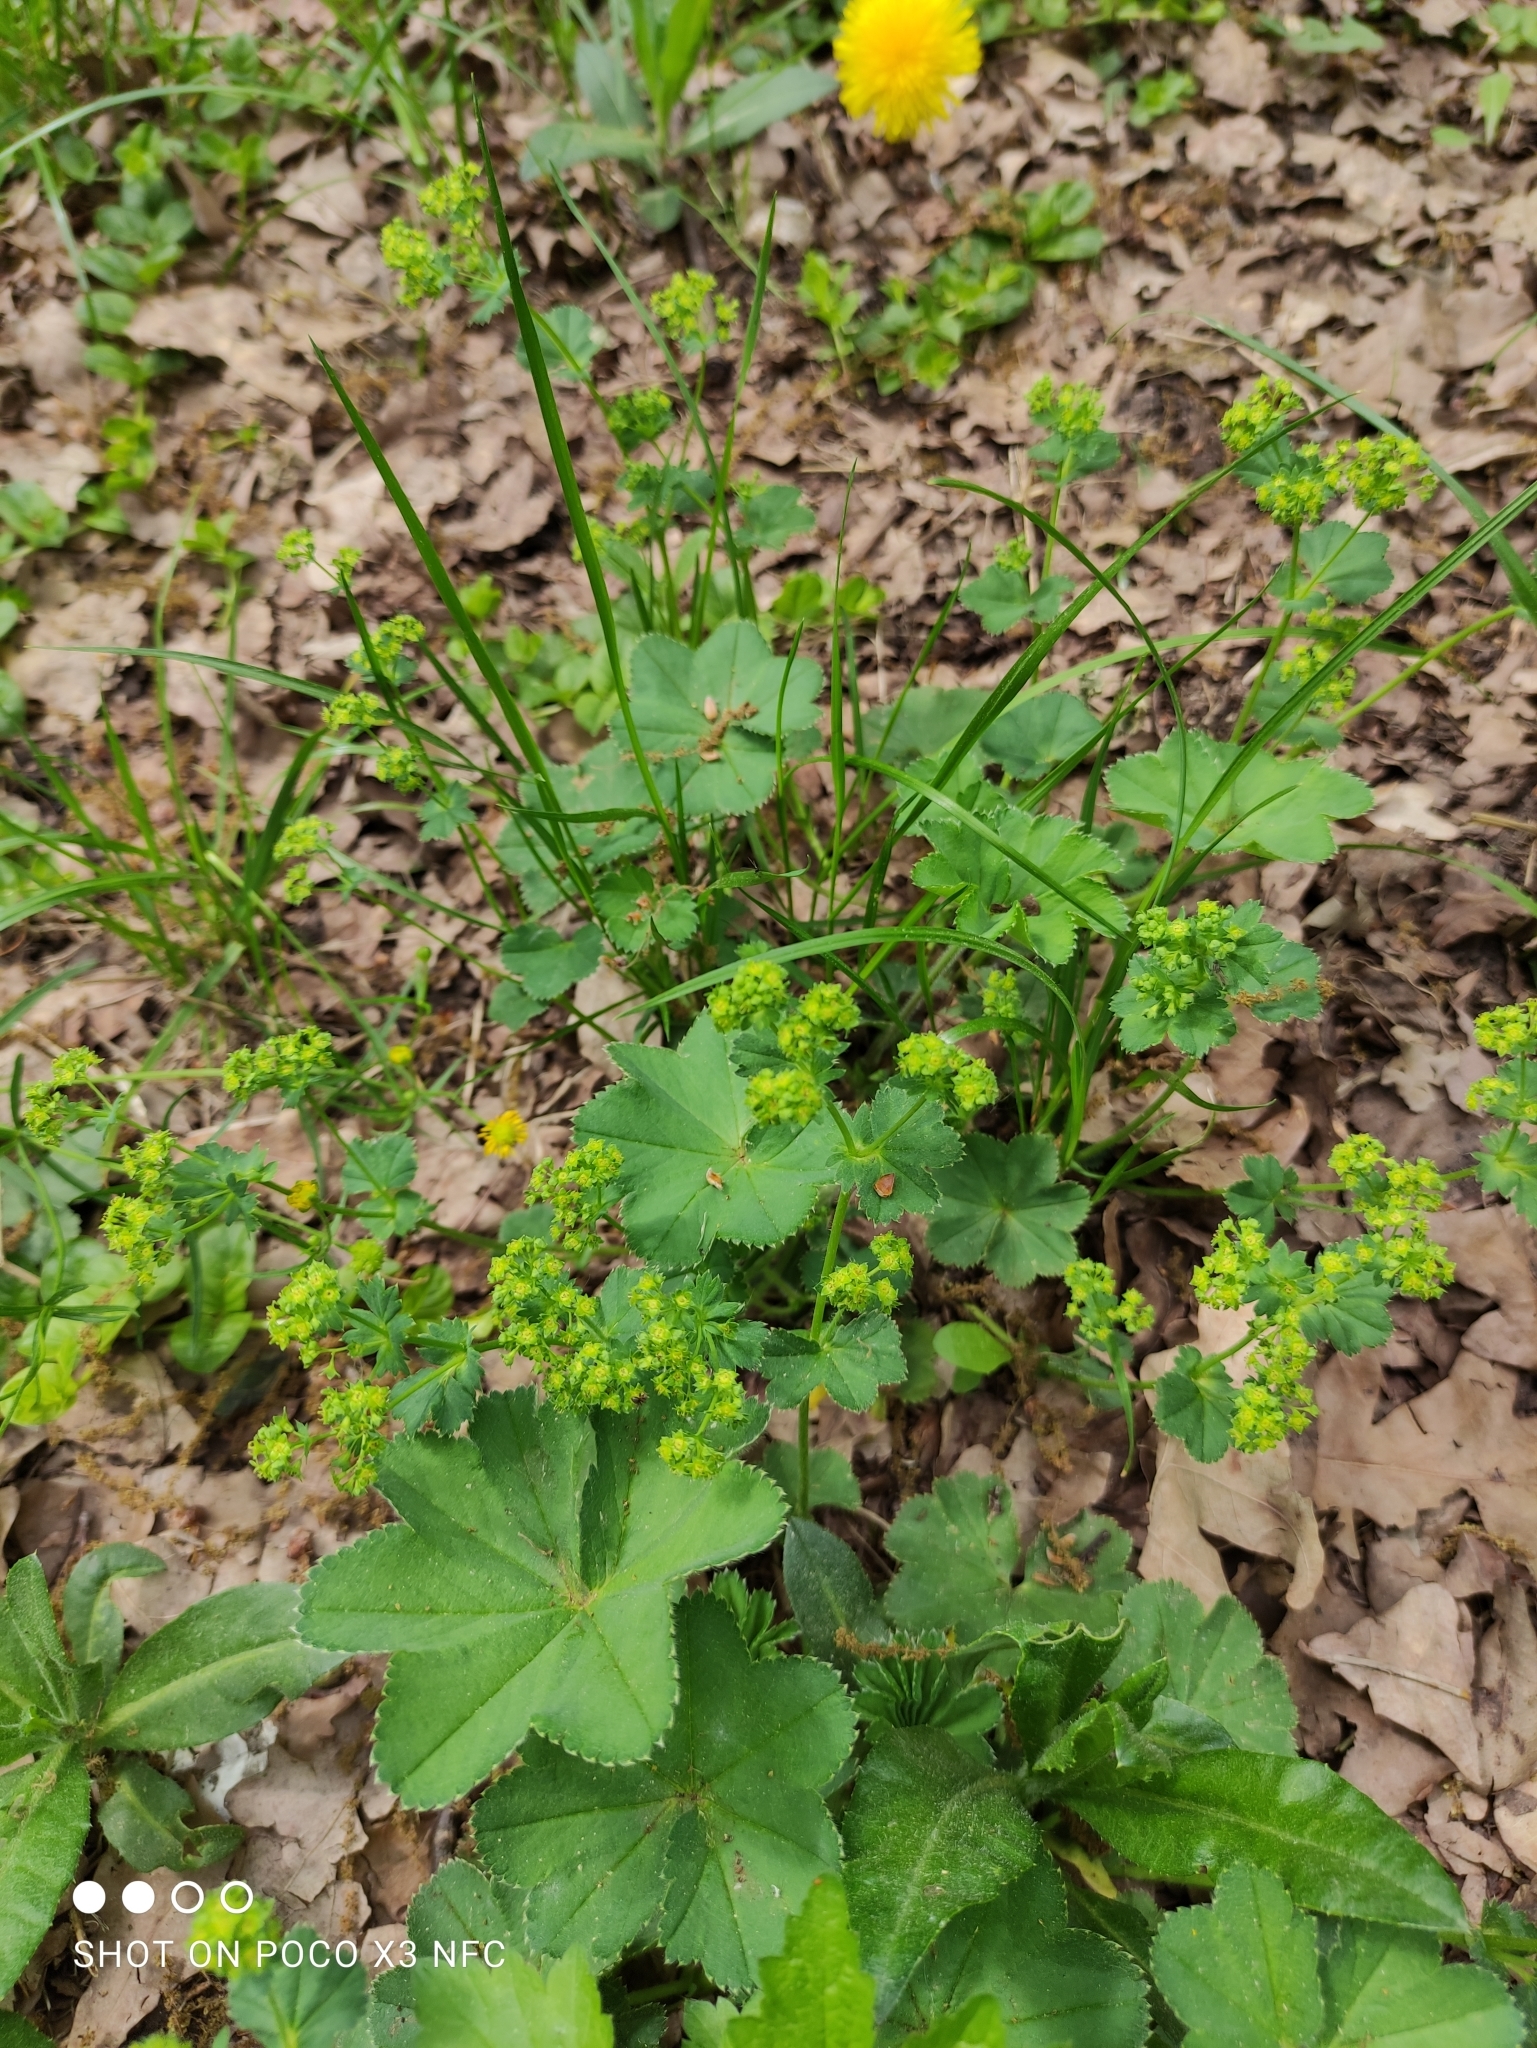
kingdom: Plantae
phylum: Tracheophyta
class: Magnoliopsida
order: Rosales
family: Rosaceae
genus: Alchemilla
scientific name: Alchemilla cymatophylla
